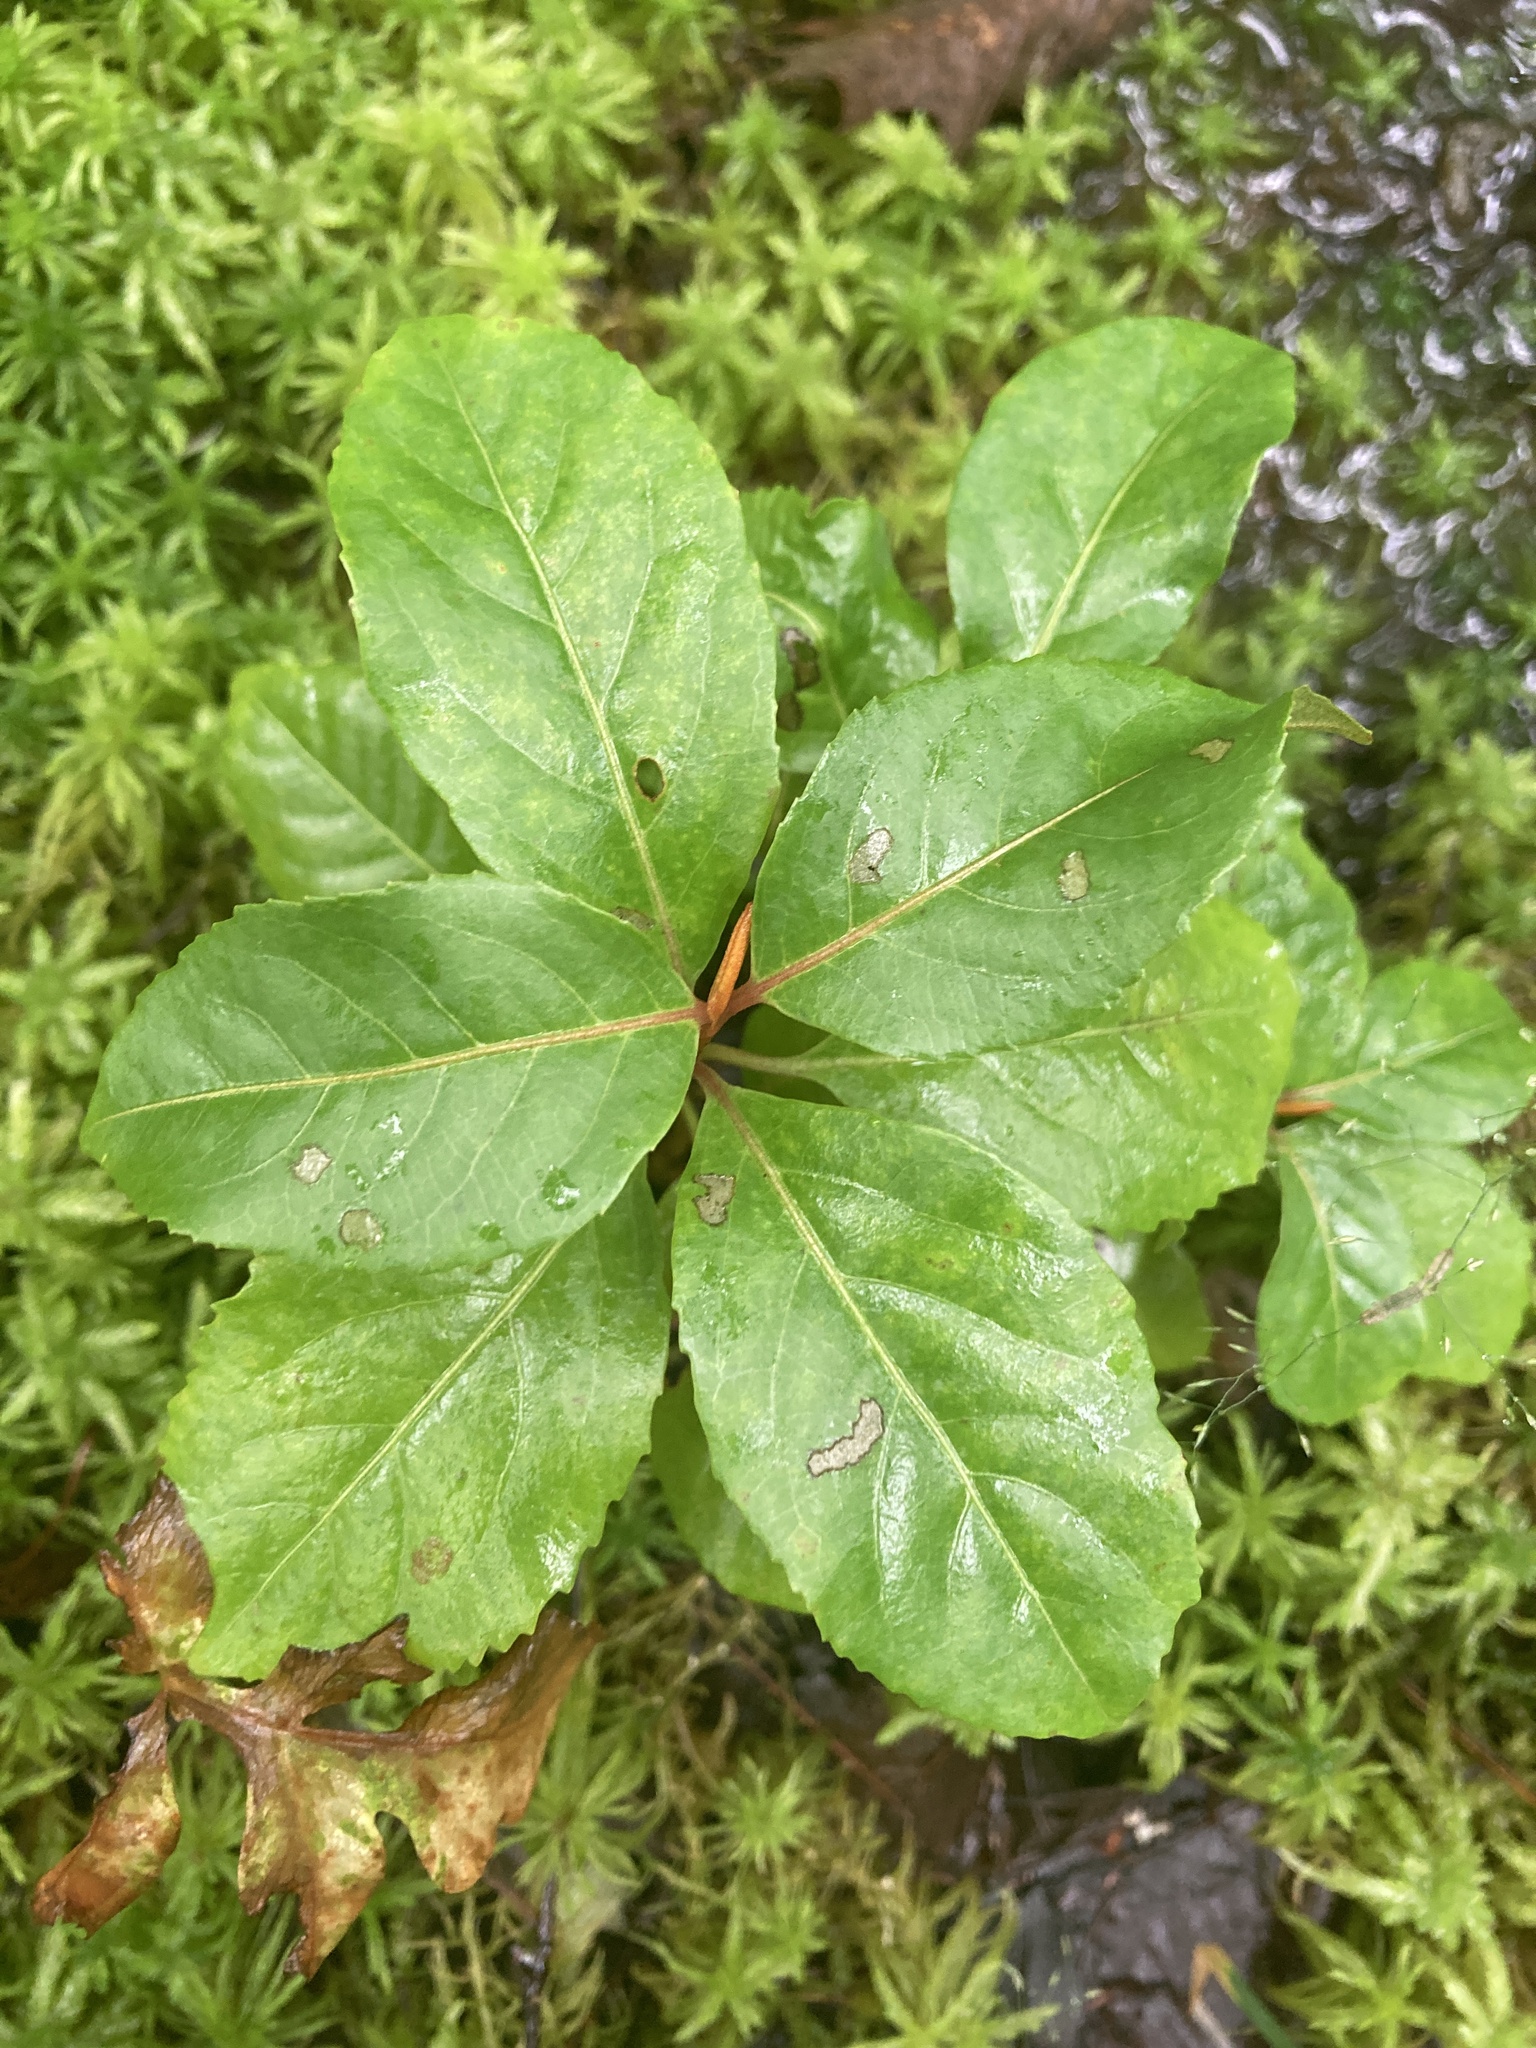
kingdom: Plantae
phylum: Tracheophyta
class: Magnoliopsida
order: Dipsacales
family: Viburnaceae
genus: Viburnum
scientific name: Viburnum cassinoides
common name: Swamp haw
